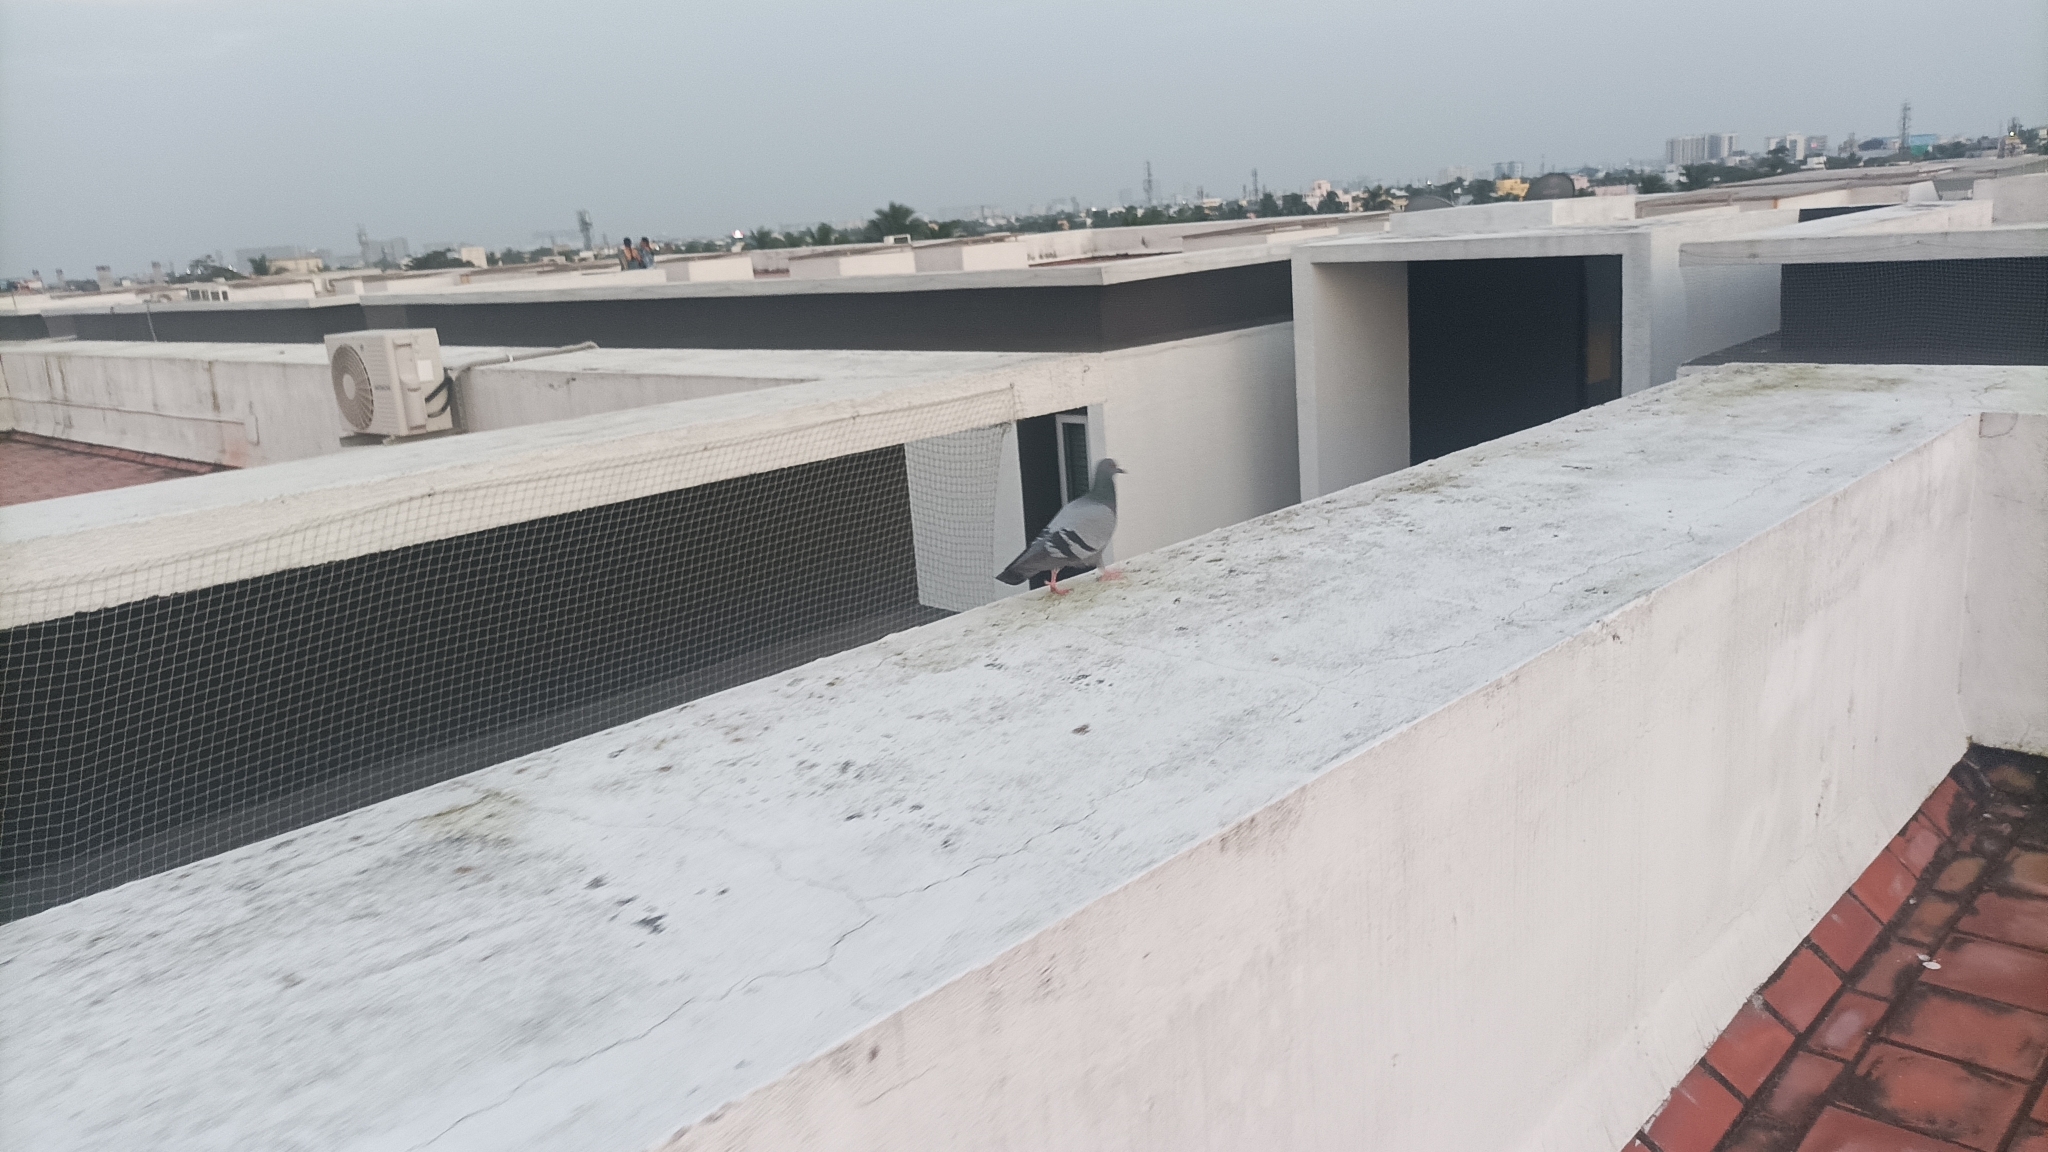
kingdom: Animalia
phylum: Chordata
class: Aves
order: Columbiformes
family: Columbidae
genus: Columba
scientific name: Columba livia
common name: Rock pigeon
